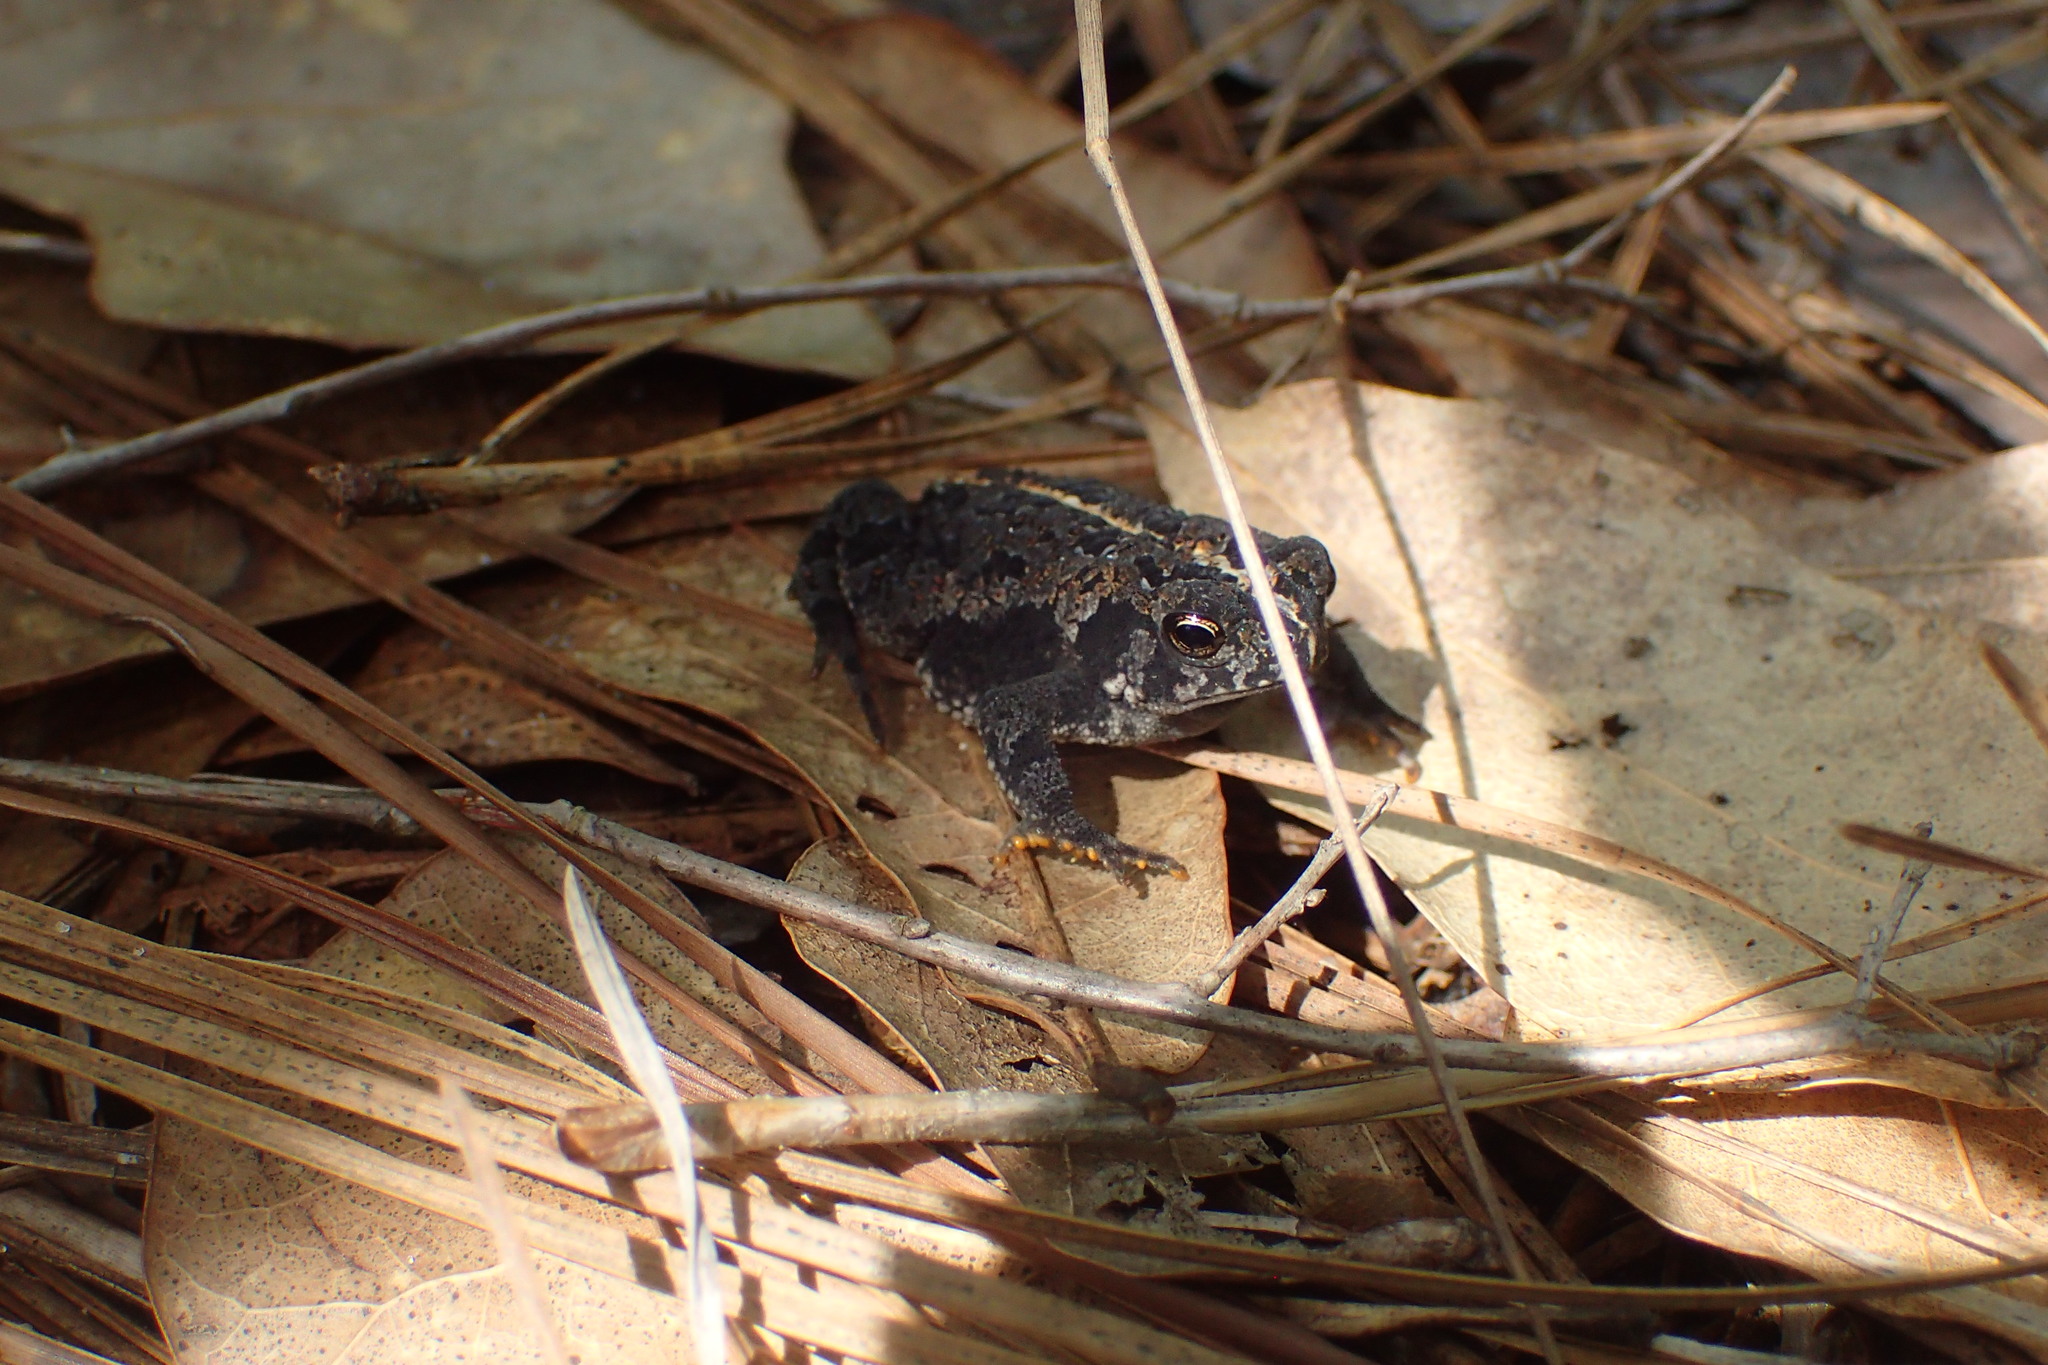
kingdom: Animalia
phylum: Chordata
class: Amphibia
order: Anura
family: Bufonidae
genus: Anaxyrus
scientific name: Anaxyrus quercicus
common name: Oak toad
